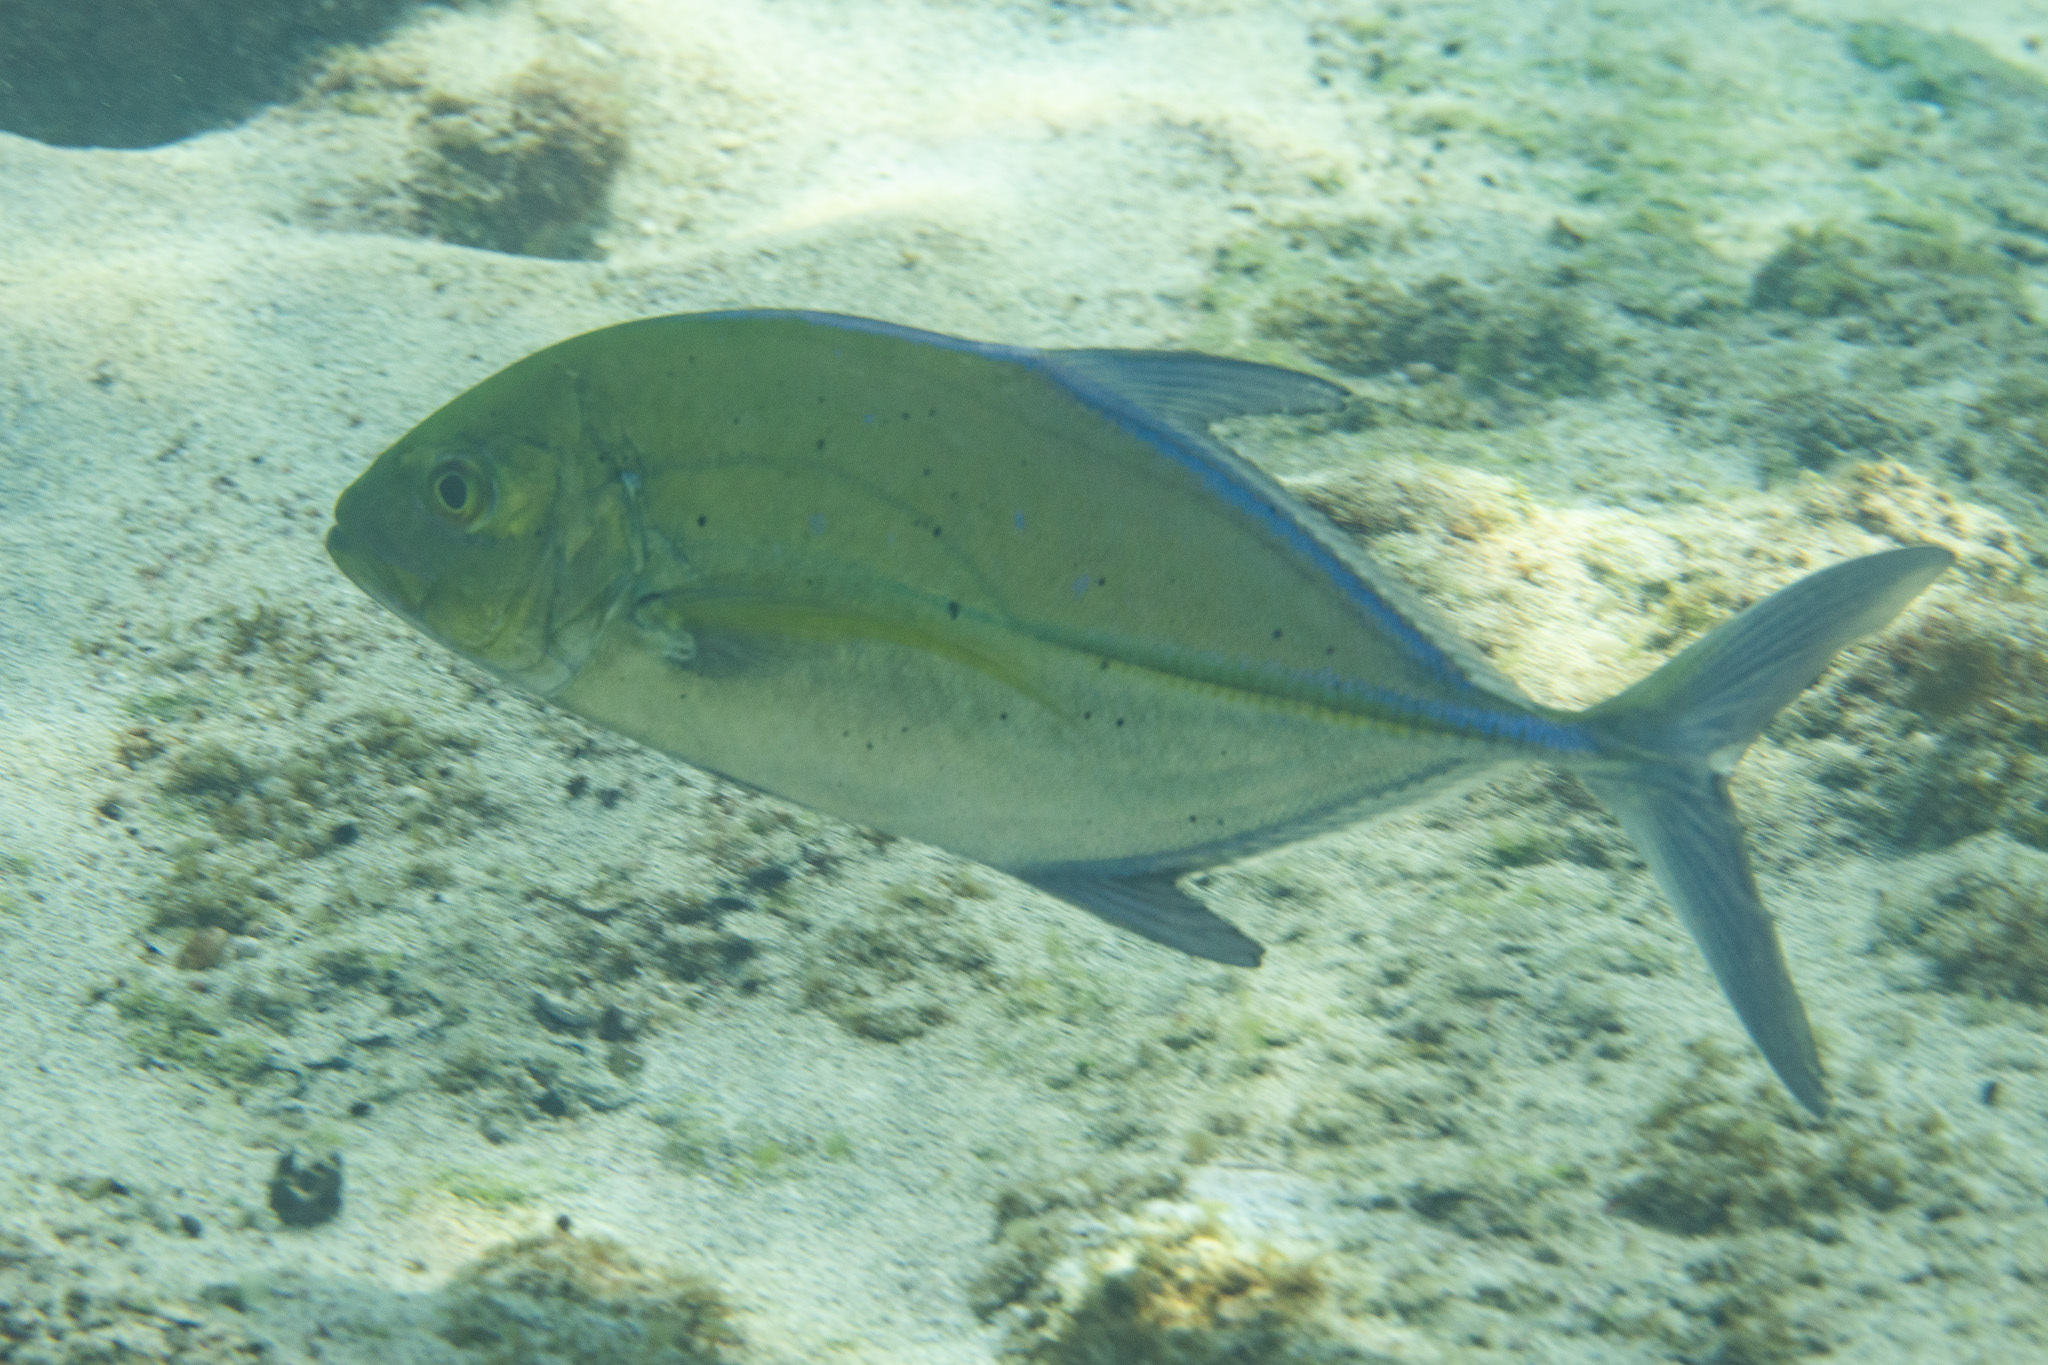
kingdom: Animalia
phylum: Chordata
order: Perciformes
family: Carangidae
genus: Caranx
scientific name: Caranx melampygus
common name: Bluefin trevally
